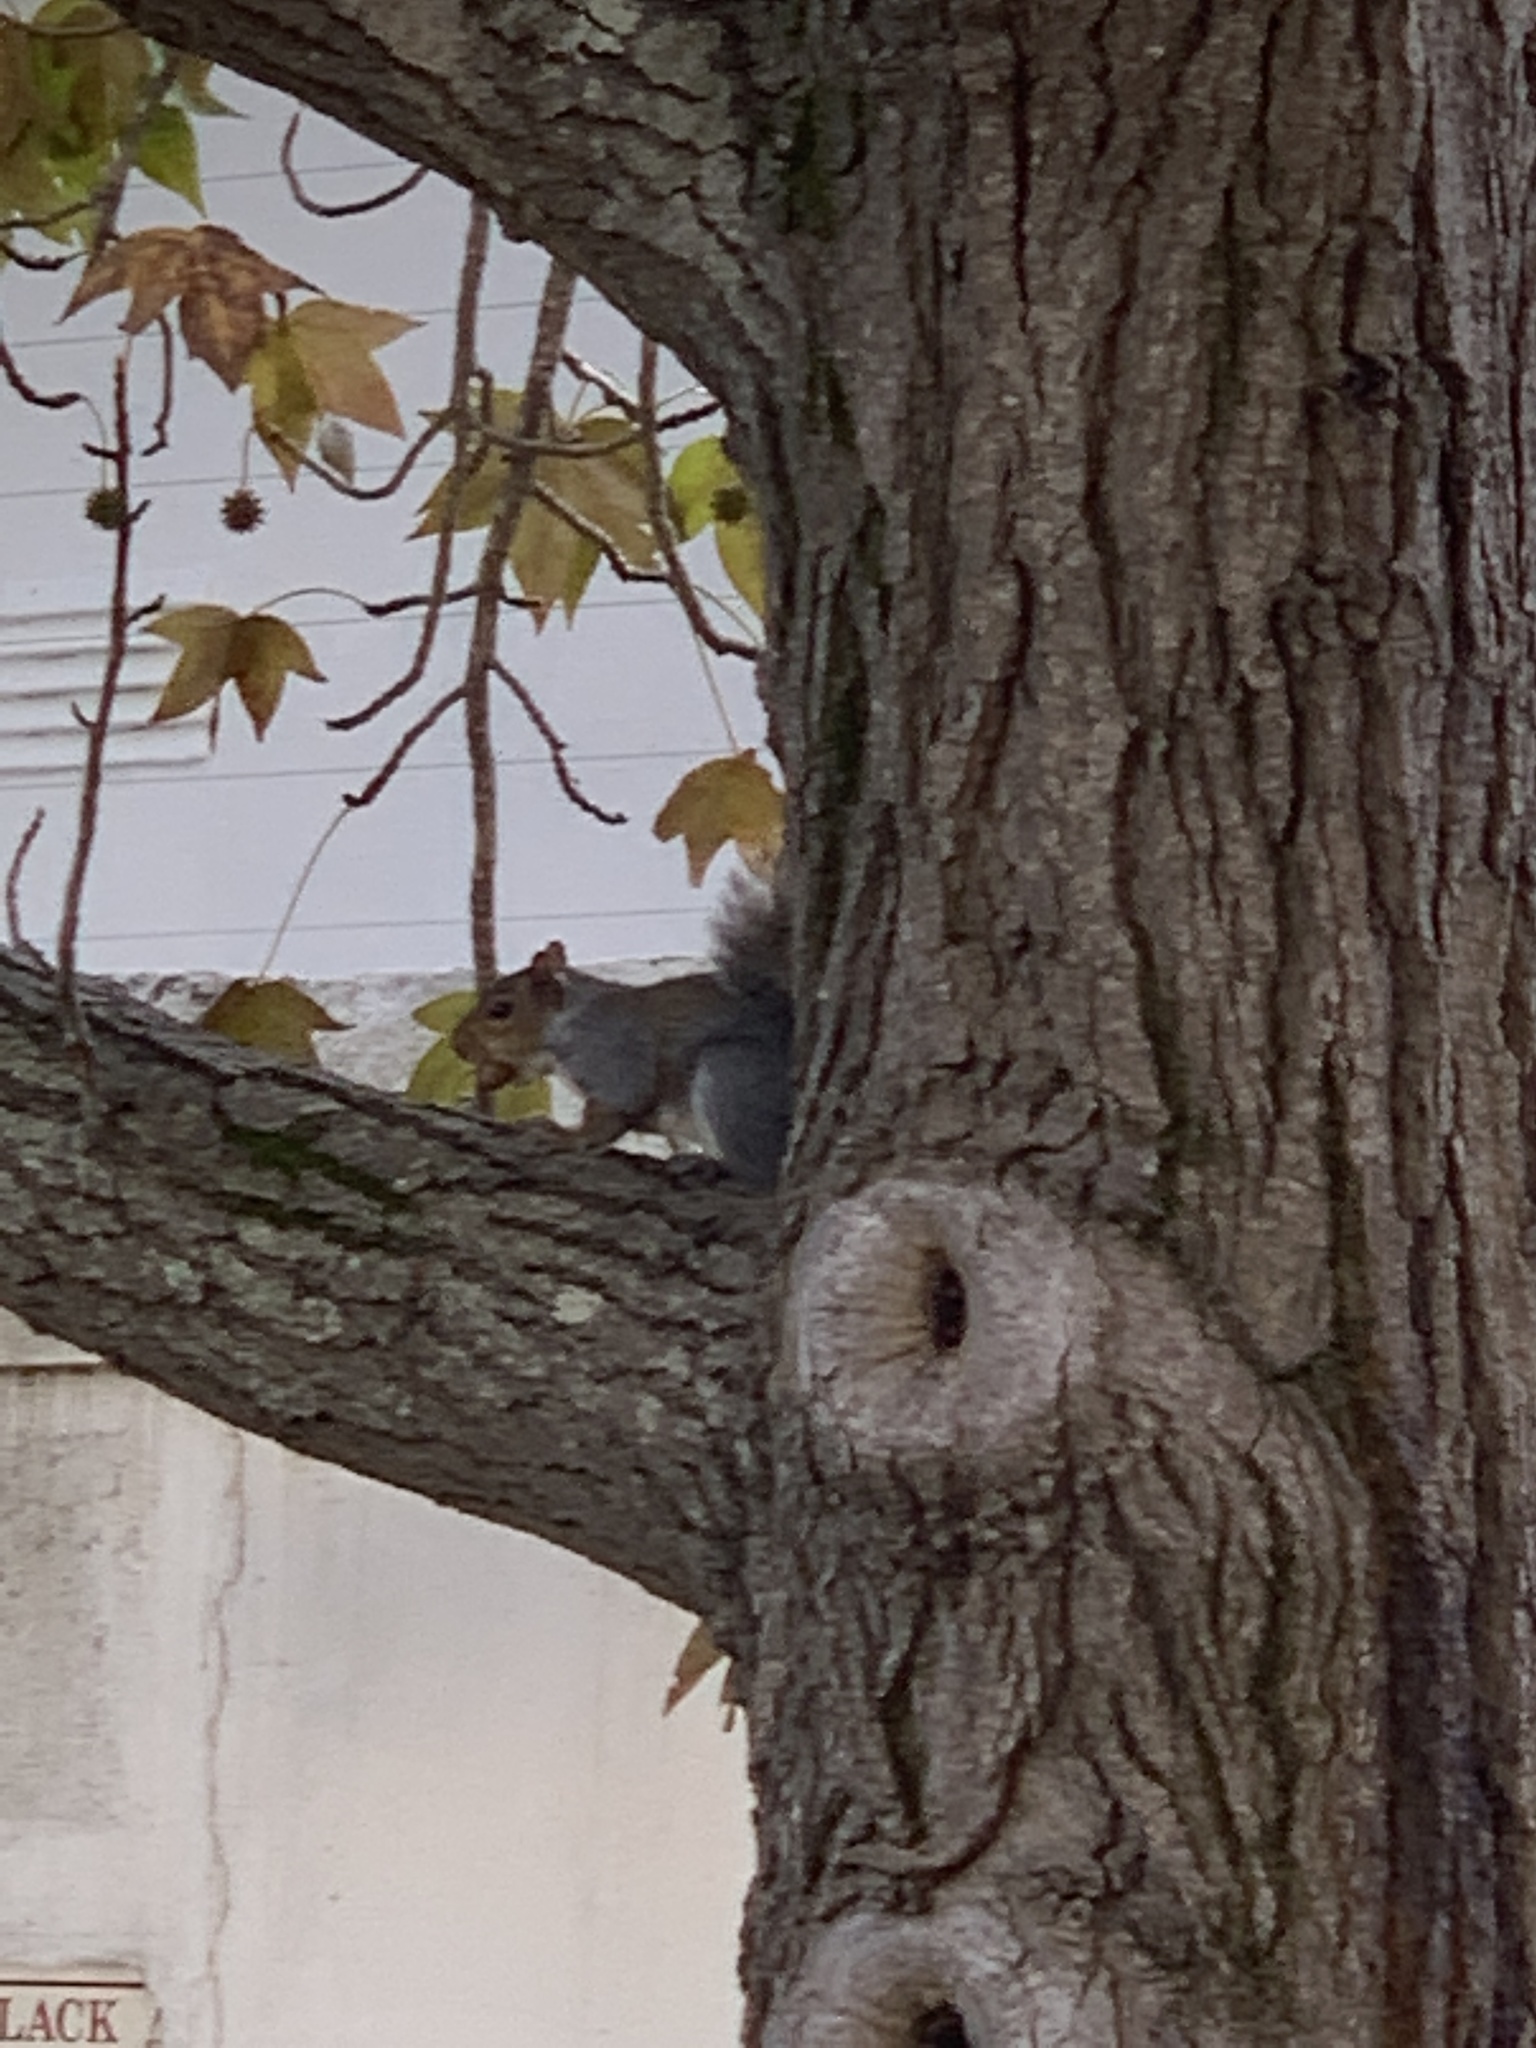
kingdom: Animalia
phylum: Chordata
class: Mammalia
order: Rodentia
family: Sciuridae
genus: Sciurus
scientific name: Sciurus carolinensis
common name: Eastern gray squirrel
